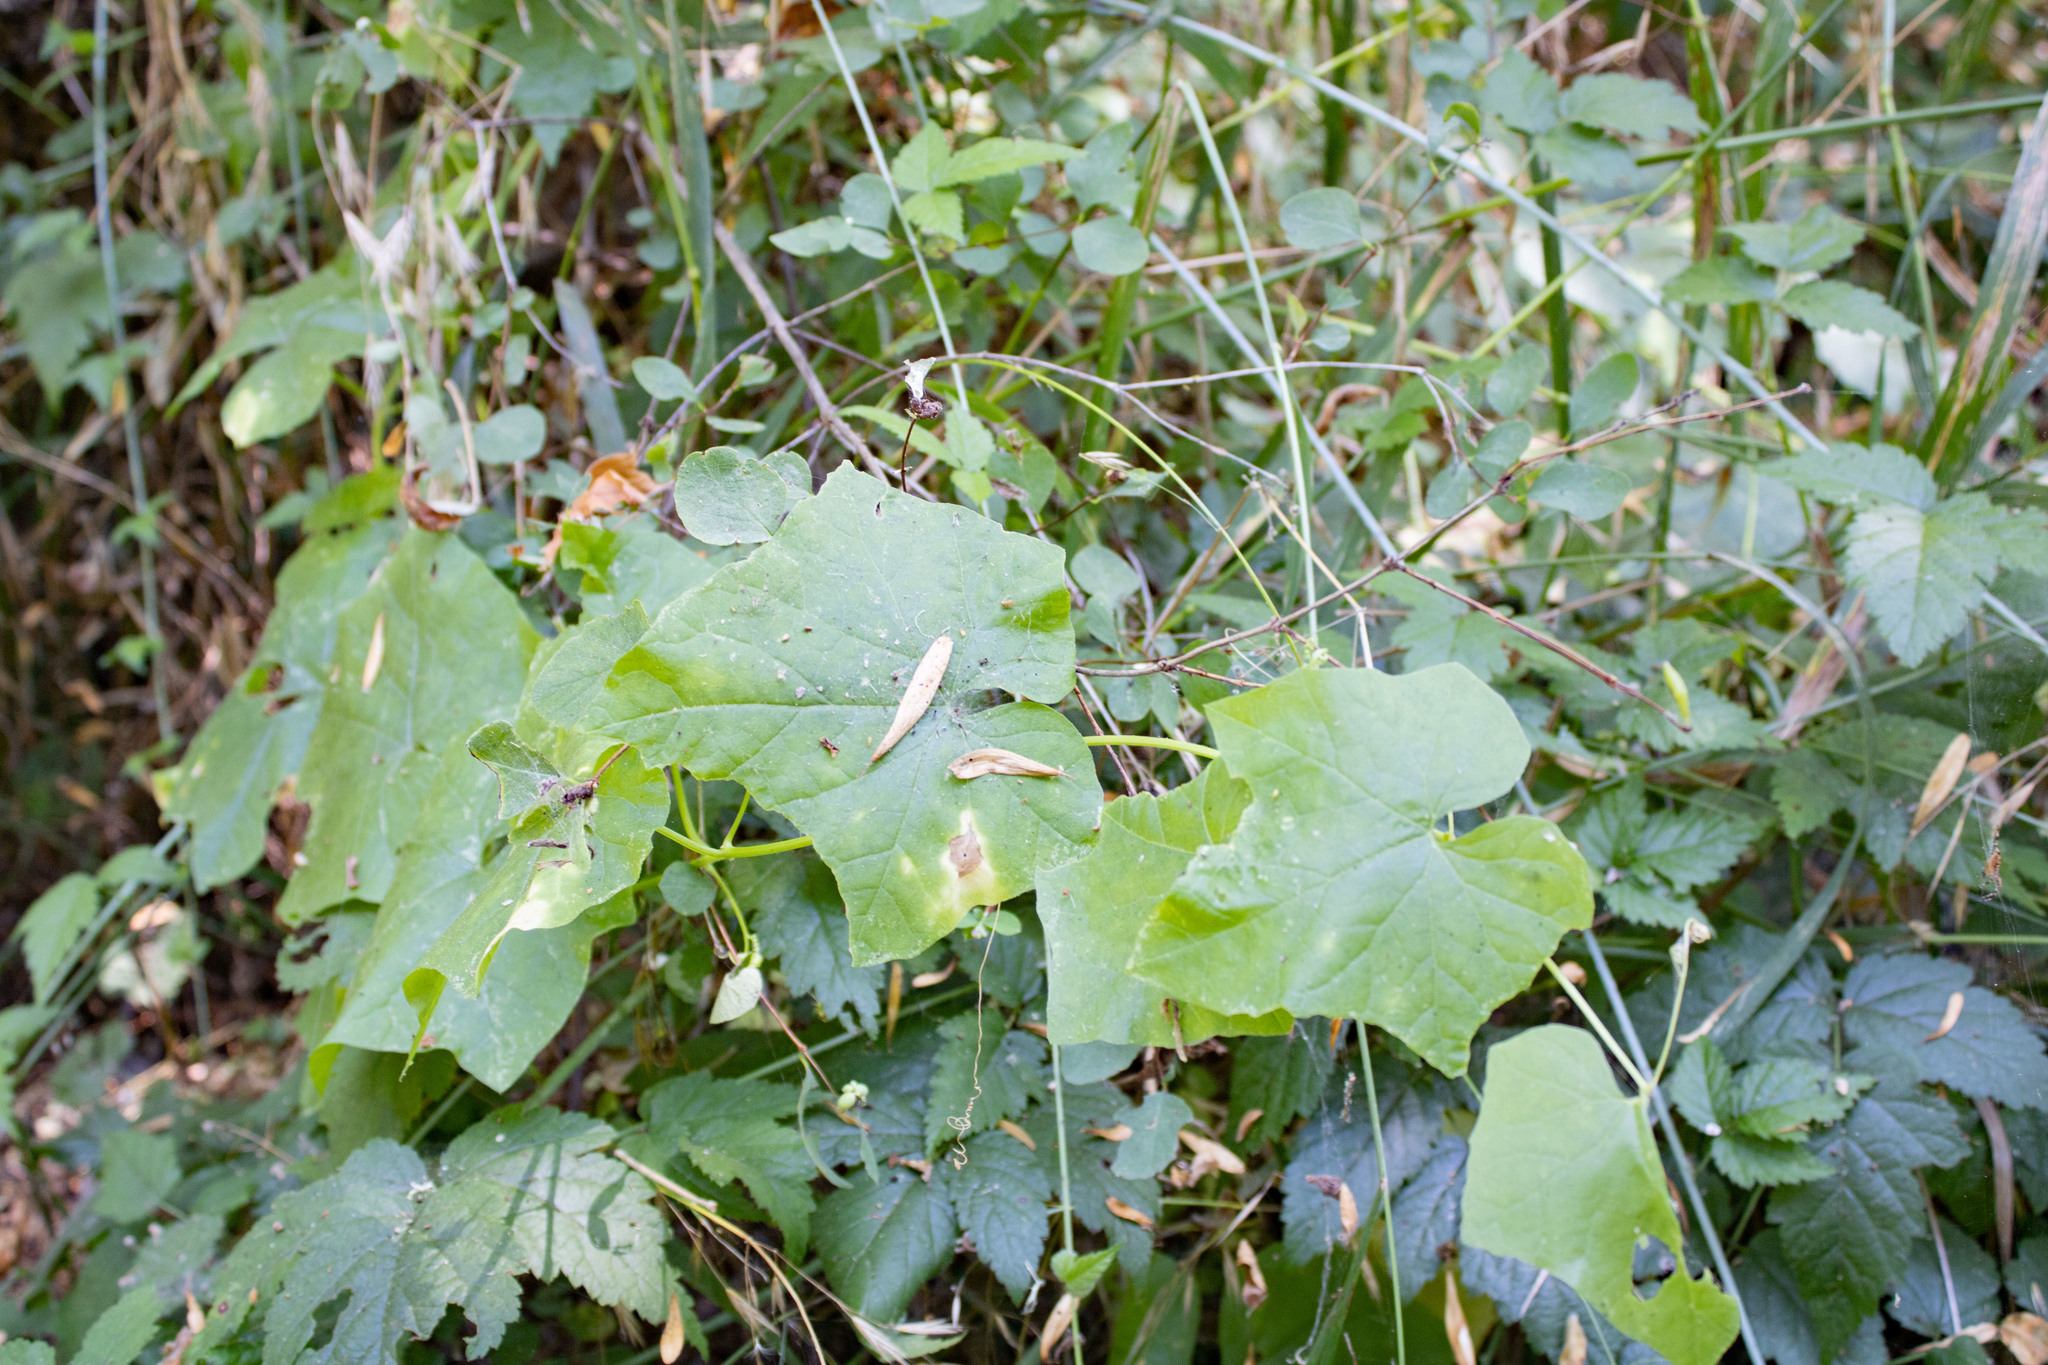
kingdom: Plantae
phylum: Tracheophyta
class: Magnoliopsida
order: Cucurbitales
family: Cucurbitaceae
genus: Marah
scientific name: Marah oregana
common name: Coastal manroot
